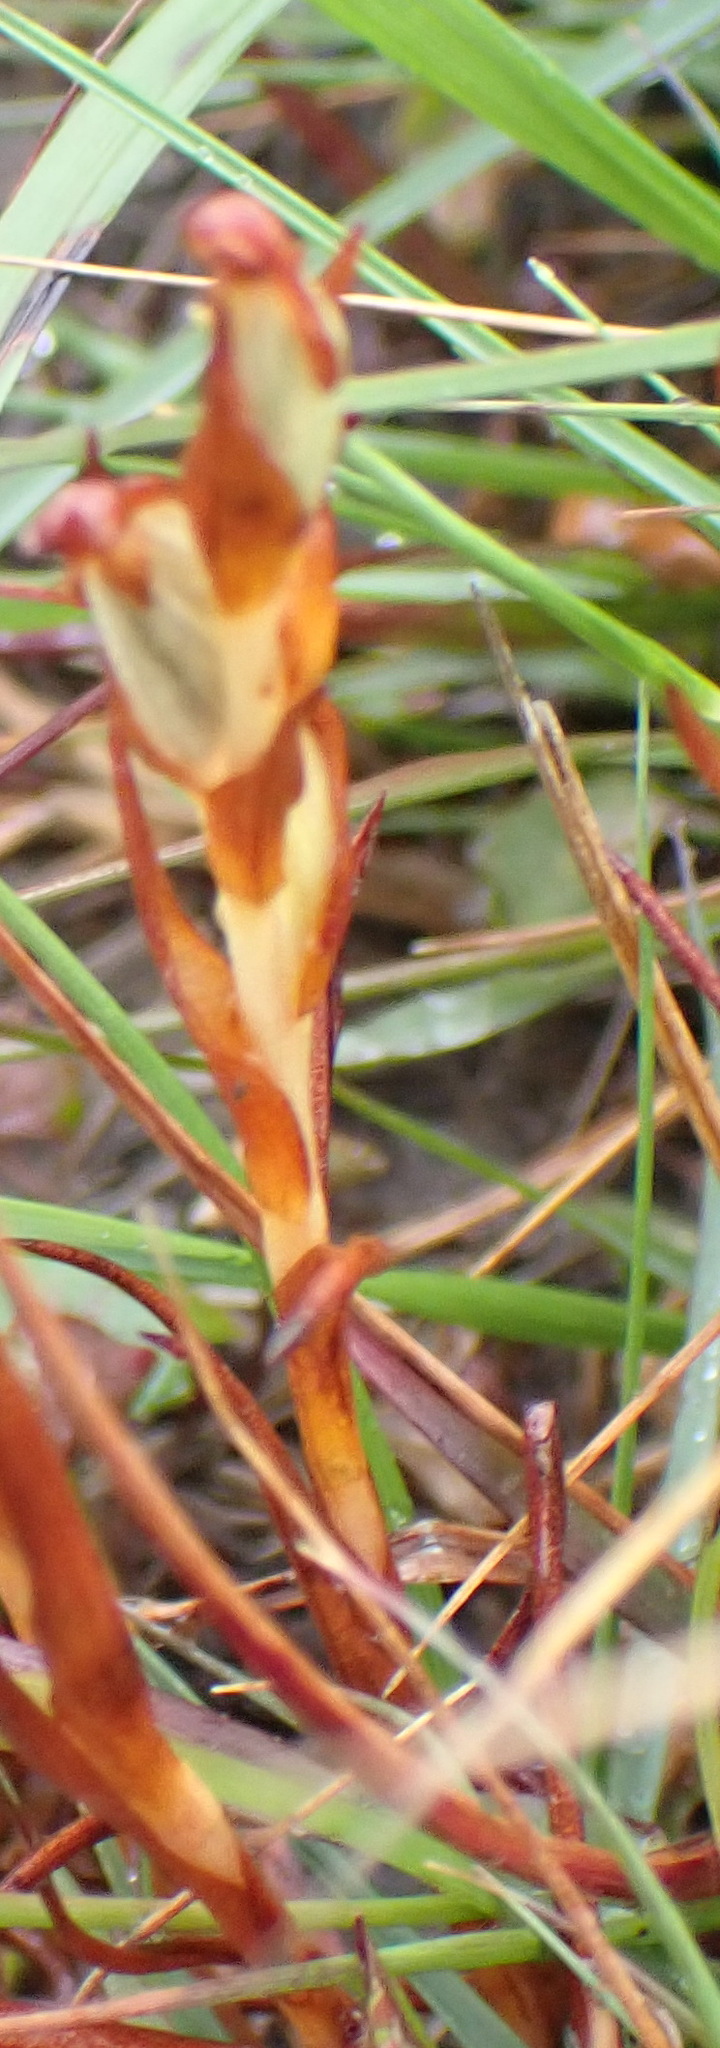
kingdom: Plantae
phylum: Tracheophyta
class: Liliopsida
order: Asparagales
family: Orchidaceae
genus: Disa
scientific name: Disa bracteata
